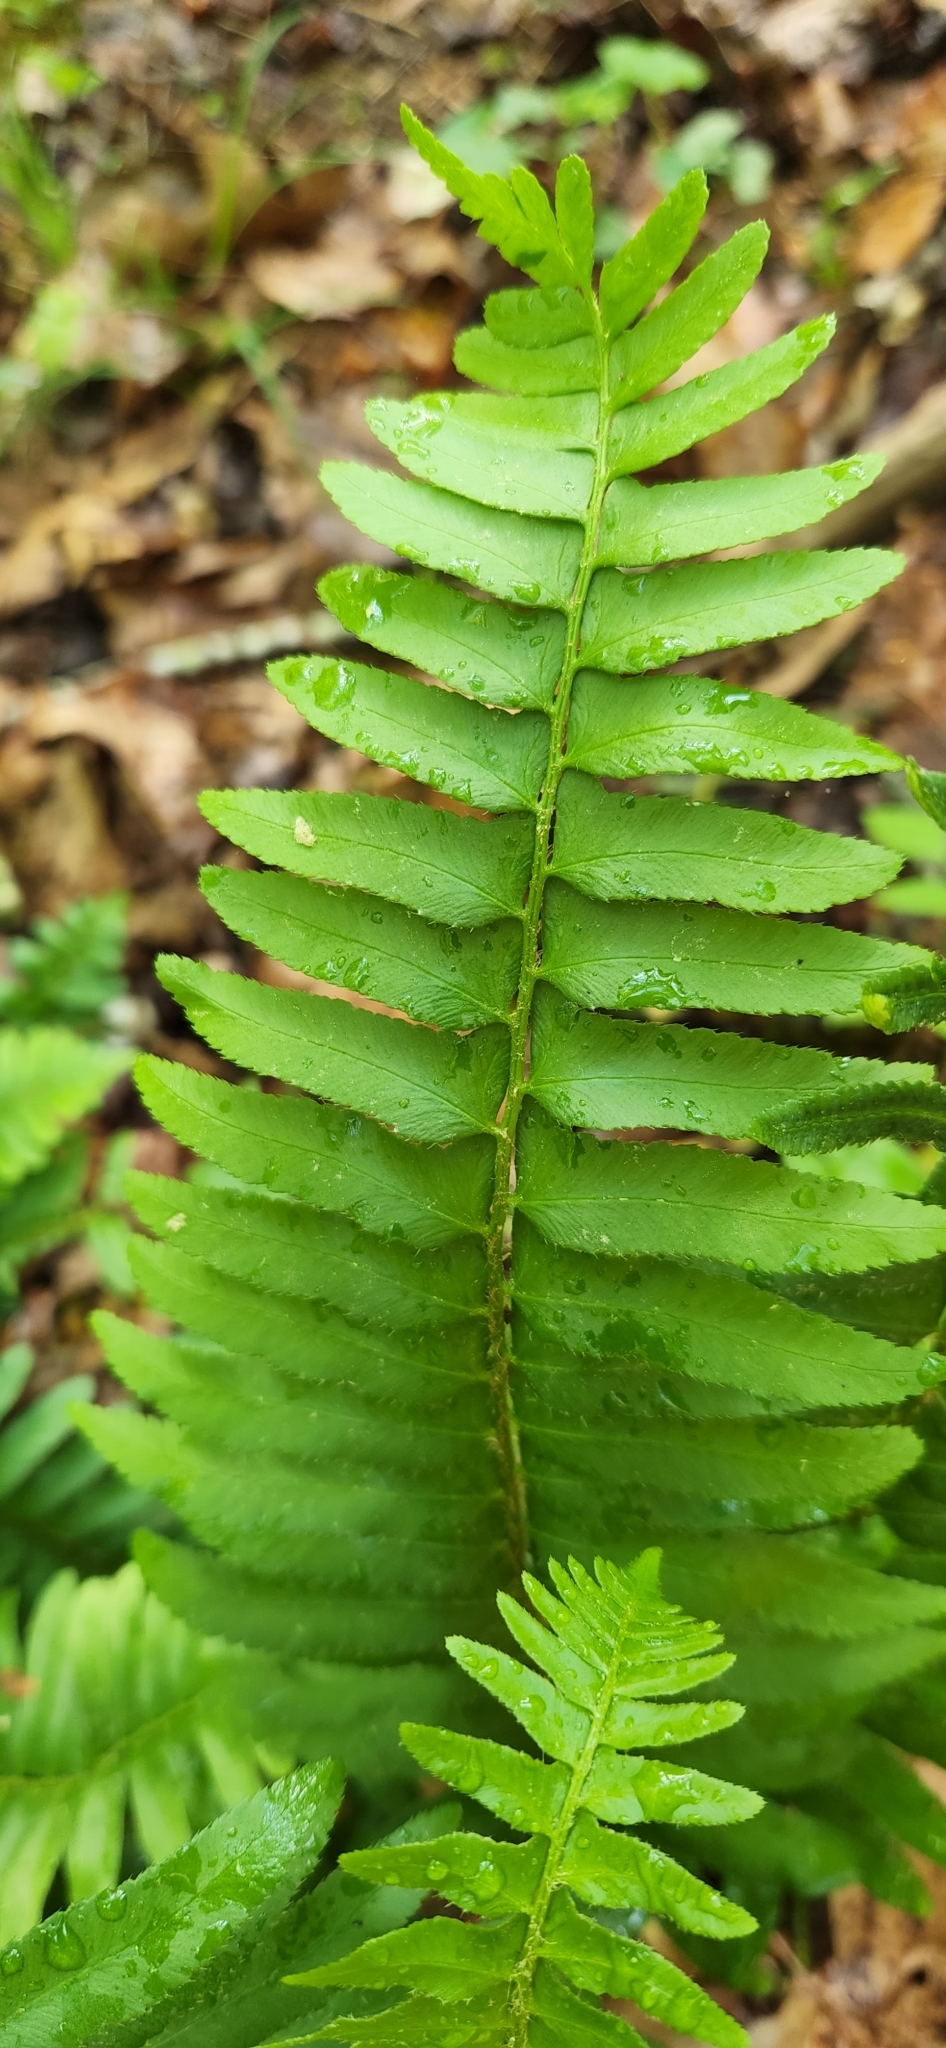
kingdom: Plantae
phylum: Tracheophyta
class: Polypodiopsida
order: Polypodiales
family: Dryopteridaceae
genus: Polystichum
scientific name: Polystichum acrostichoides
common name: Christmas fern
